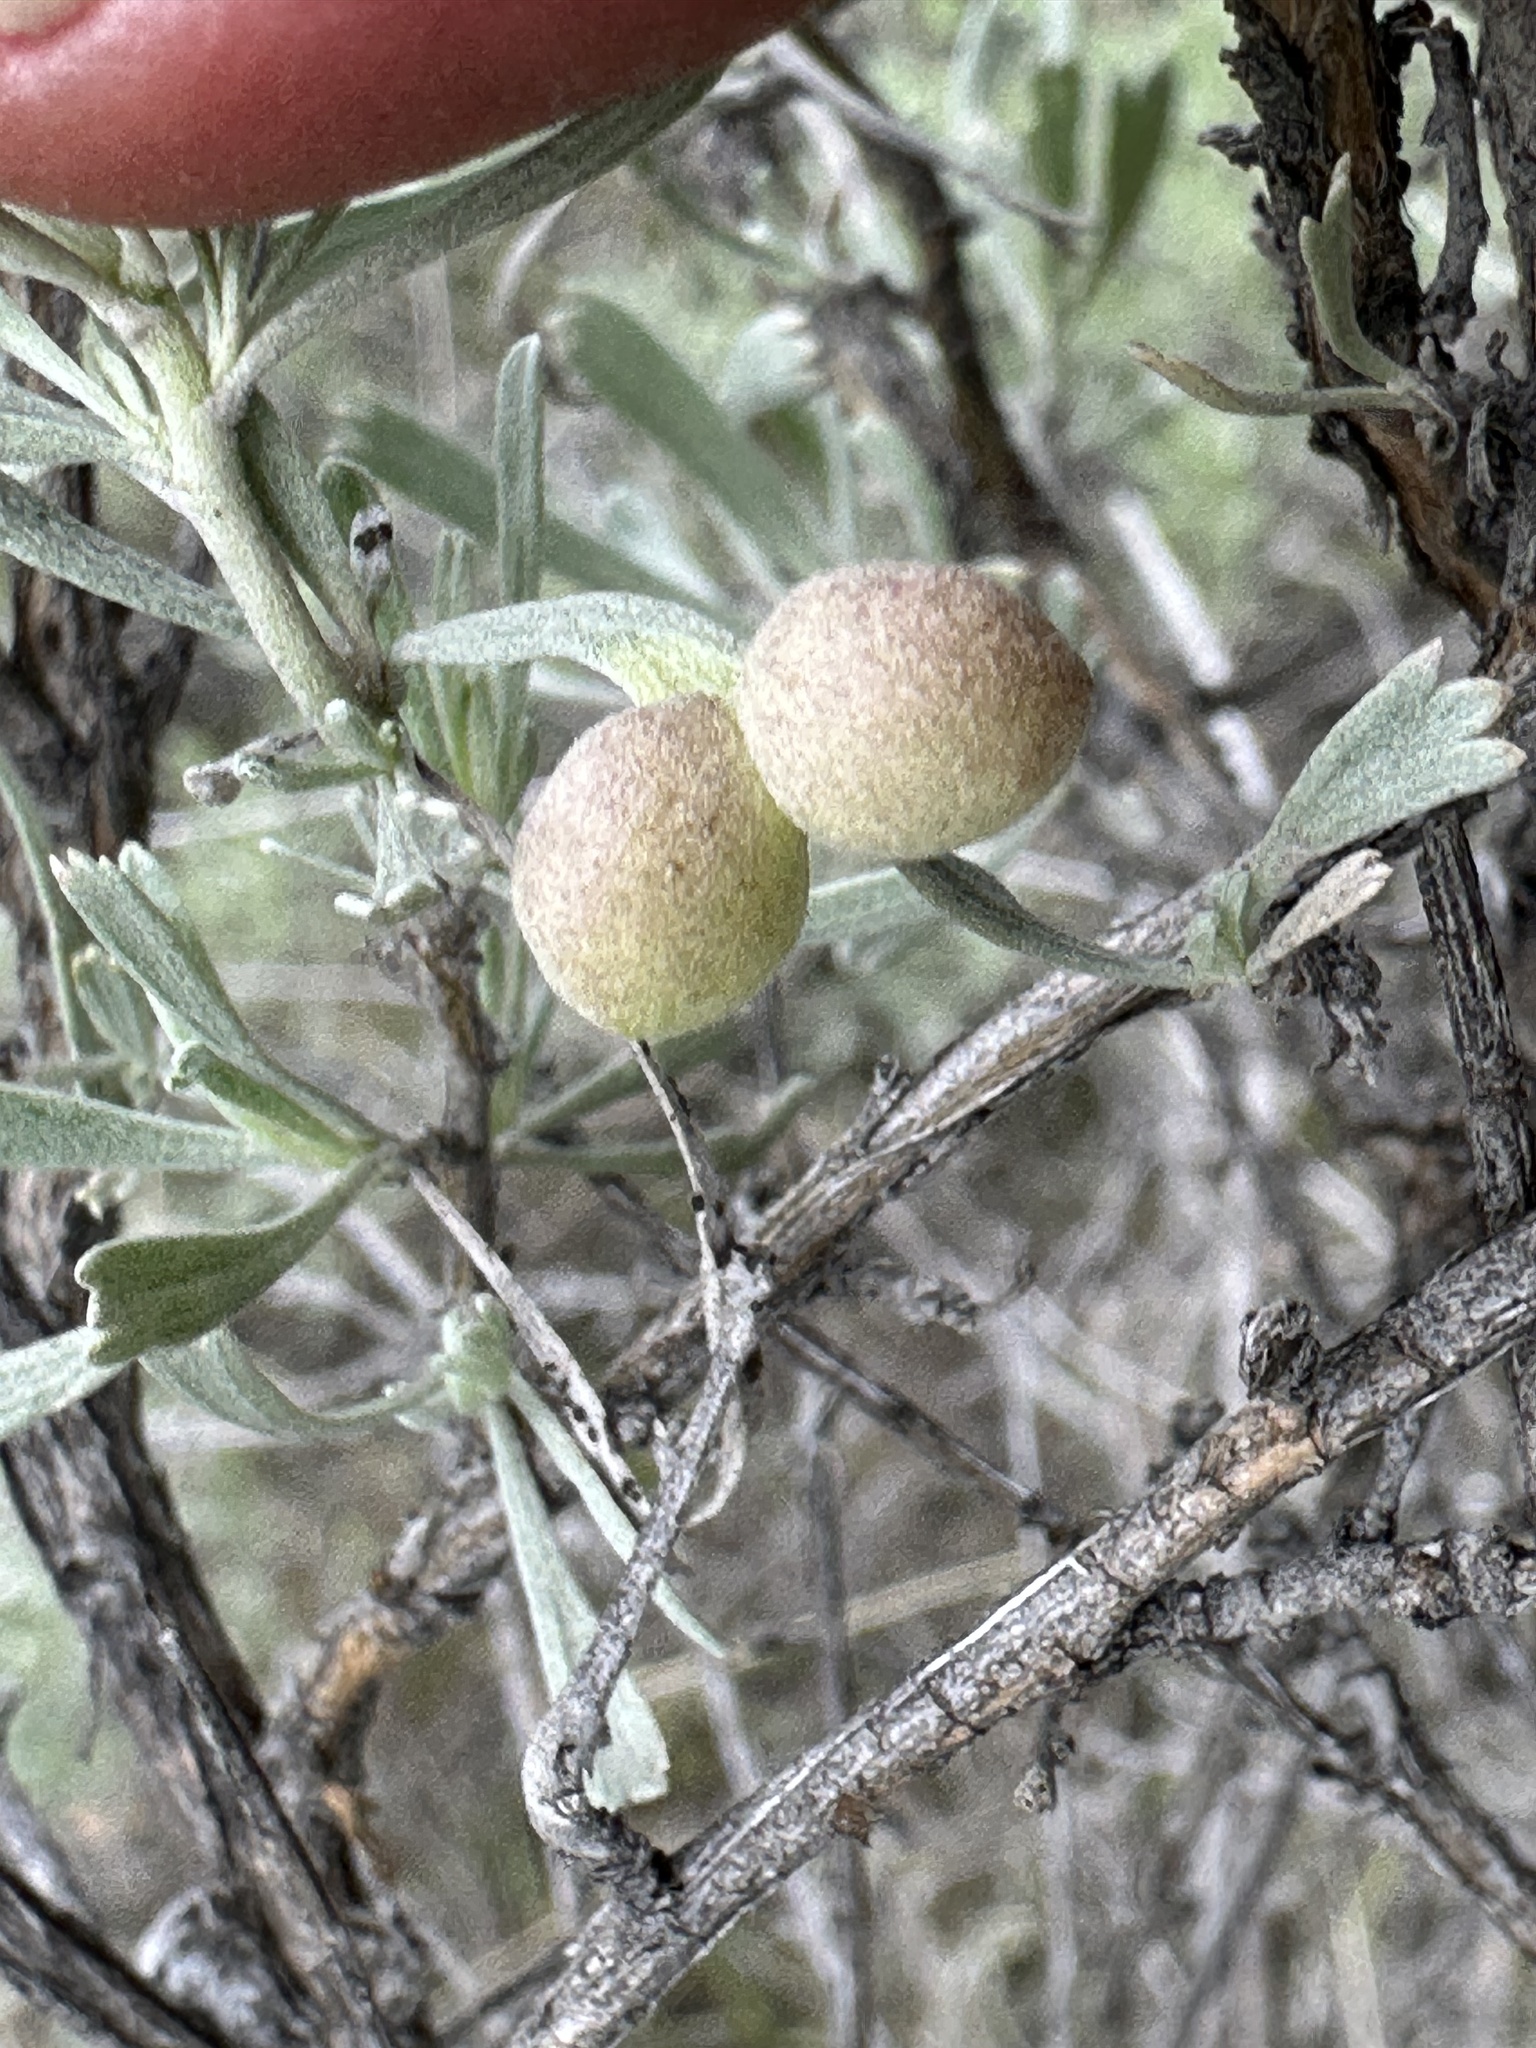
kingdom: Animalia
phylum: Arthropoda
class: Insecta
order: Diptera
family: Cecidomyiidae
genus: Rhopalomyia
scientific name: Rhopalomyia pomum
